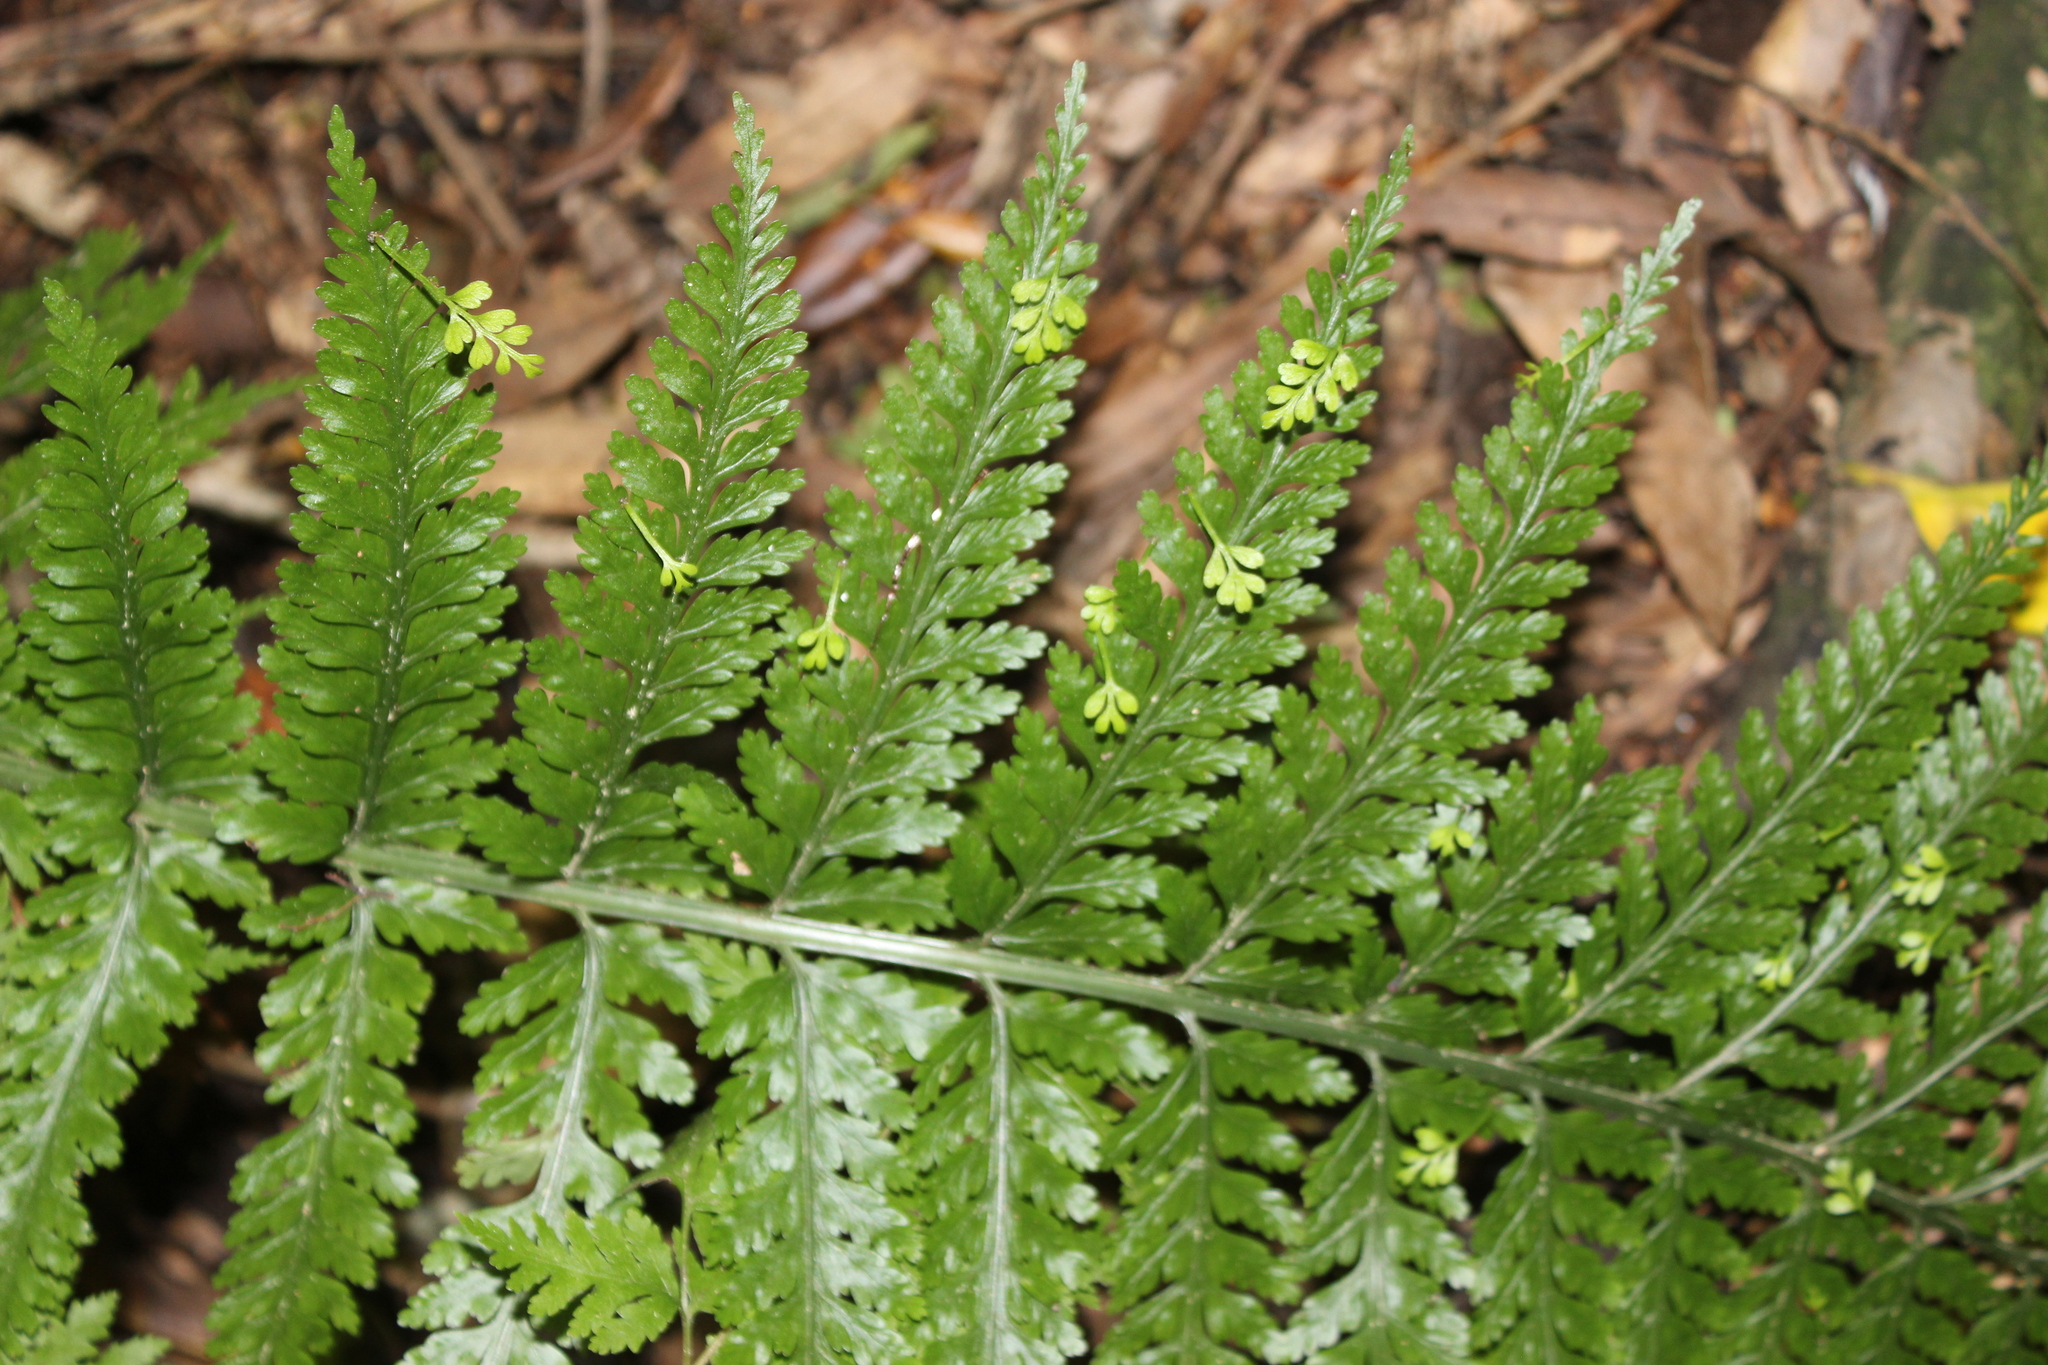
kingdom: Plantae
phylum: Tracheophyta
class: Polypodiopsida
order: Polypodiales
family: Aspleniaceae
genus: Asplenium
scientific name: Asplenium bulbiferum
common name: Mother fern
